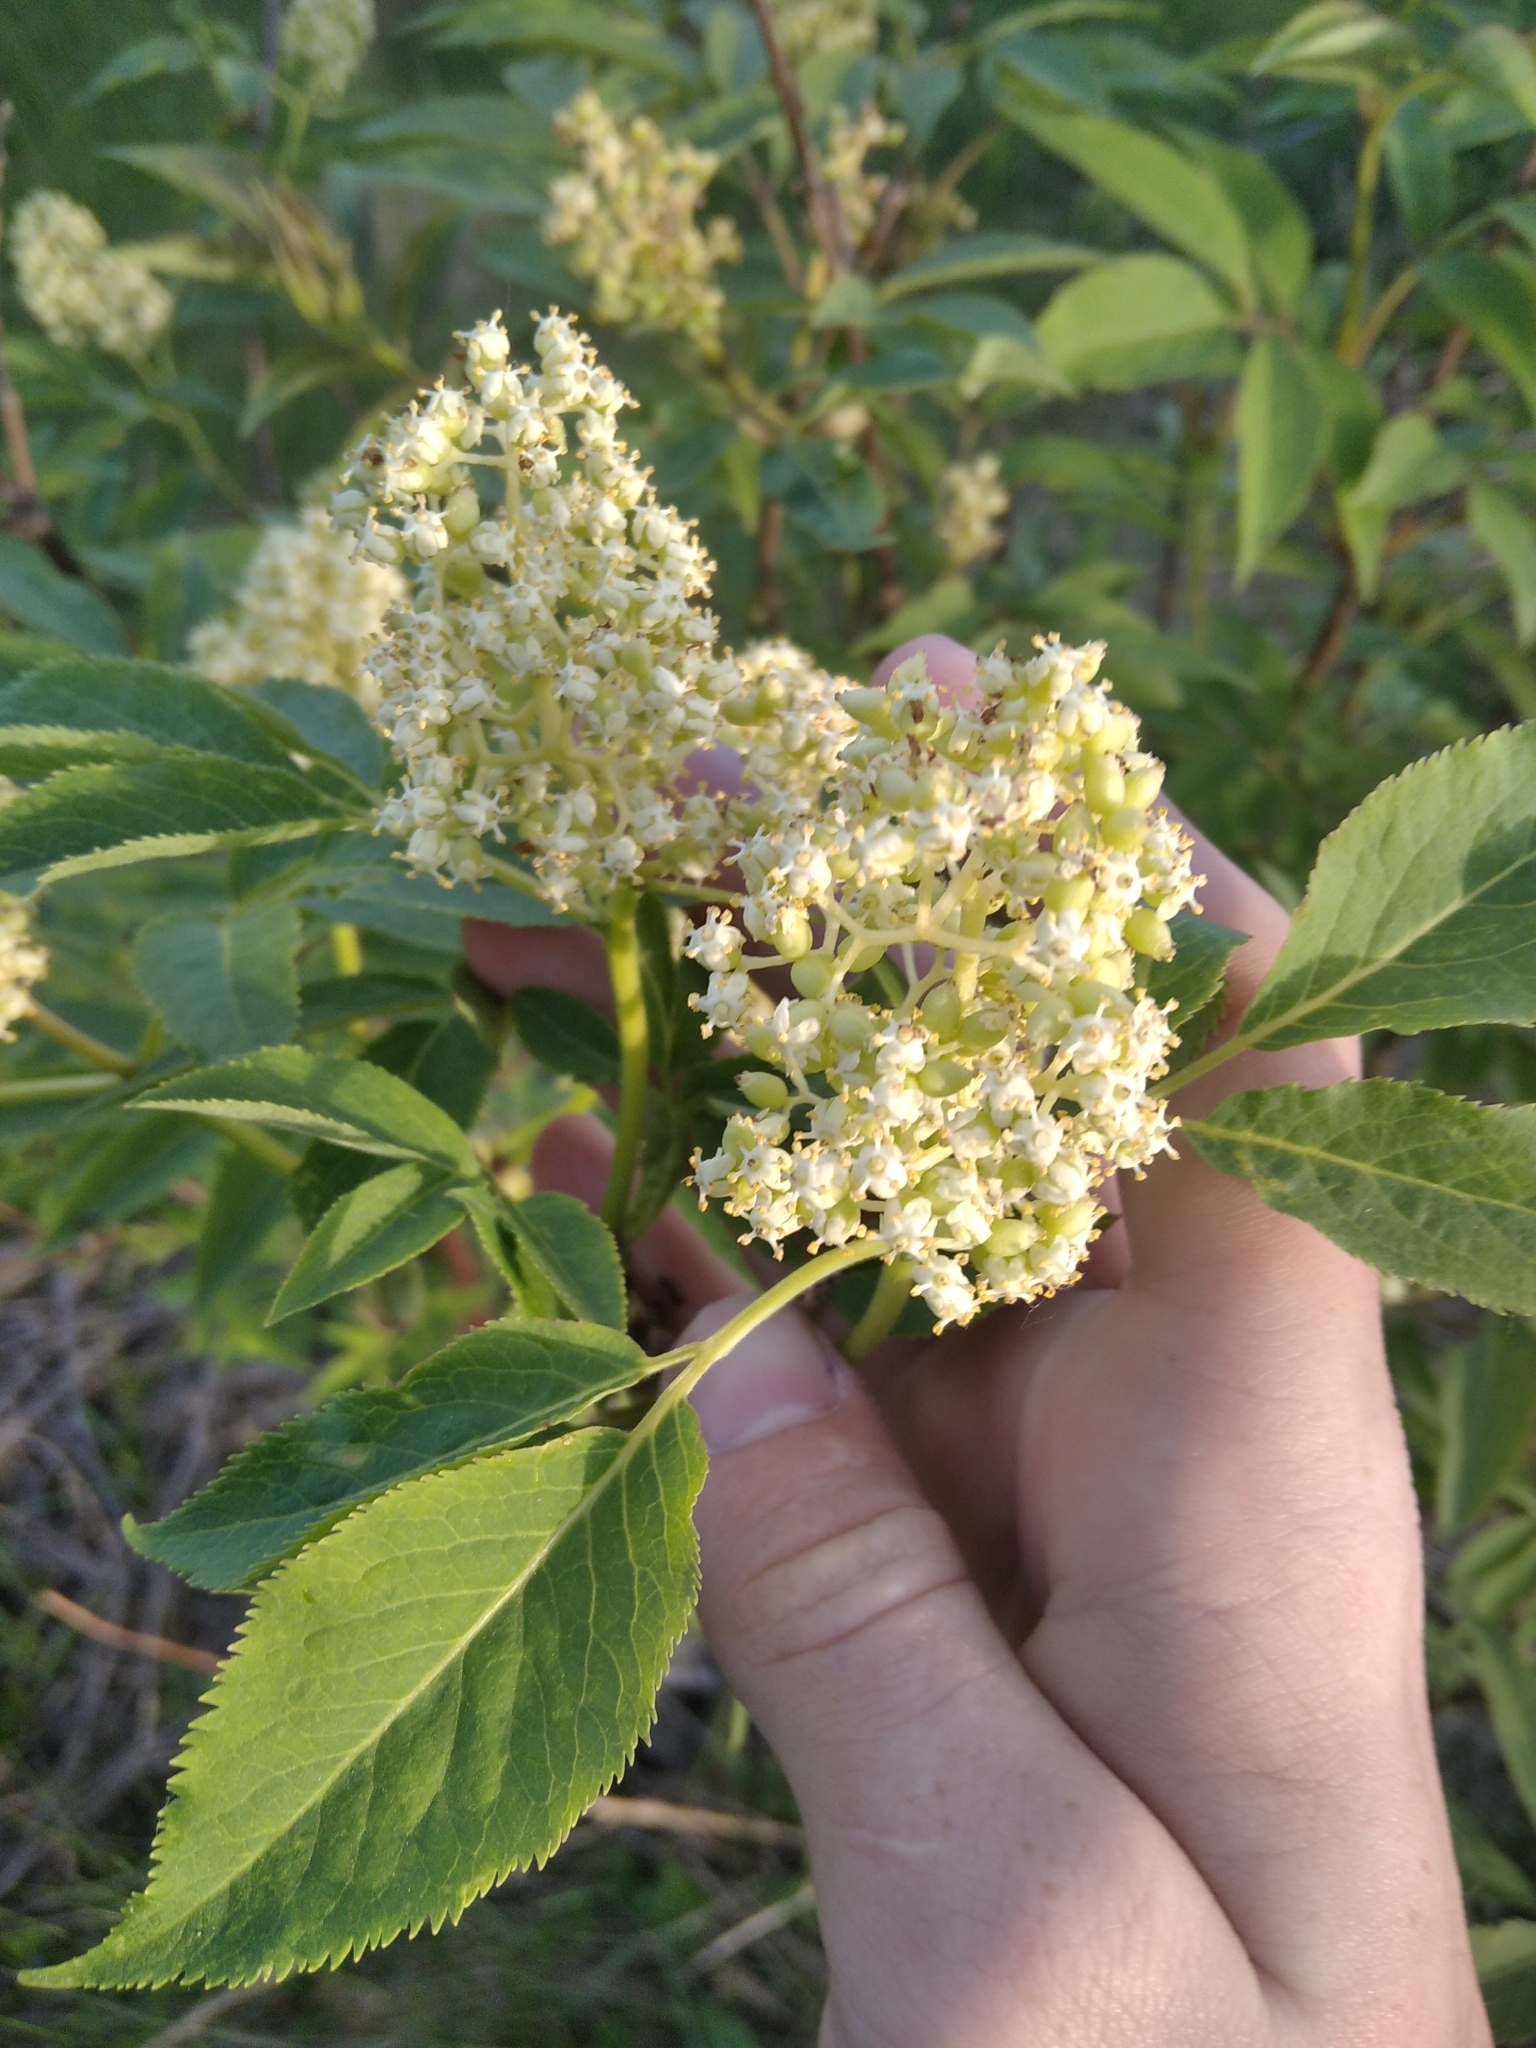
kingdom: Plantae
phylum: Tracheophyta
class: Magnoliopsida
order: Dipsacales
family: Viburnaceae
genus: Sambucus
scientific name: Sambucus racemosa
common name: Red-berried elder
